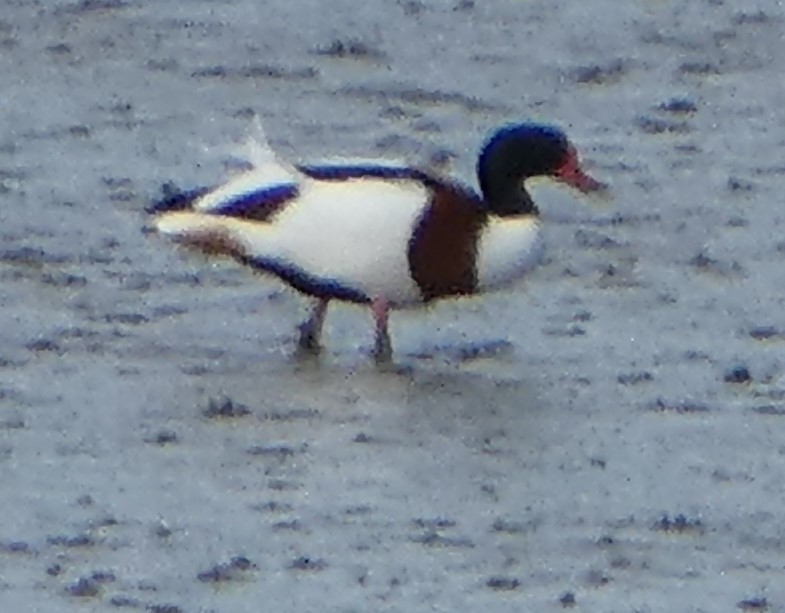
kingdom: Animalia
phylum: Chordata
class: Aves
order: Anseriformes
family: Anatidae
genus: Tadorna
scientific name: Tadorna tadorna
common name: Common shelduck
